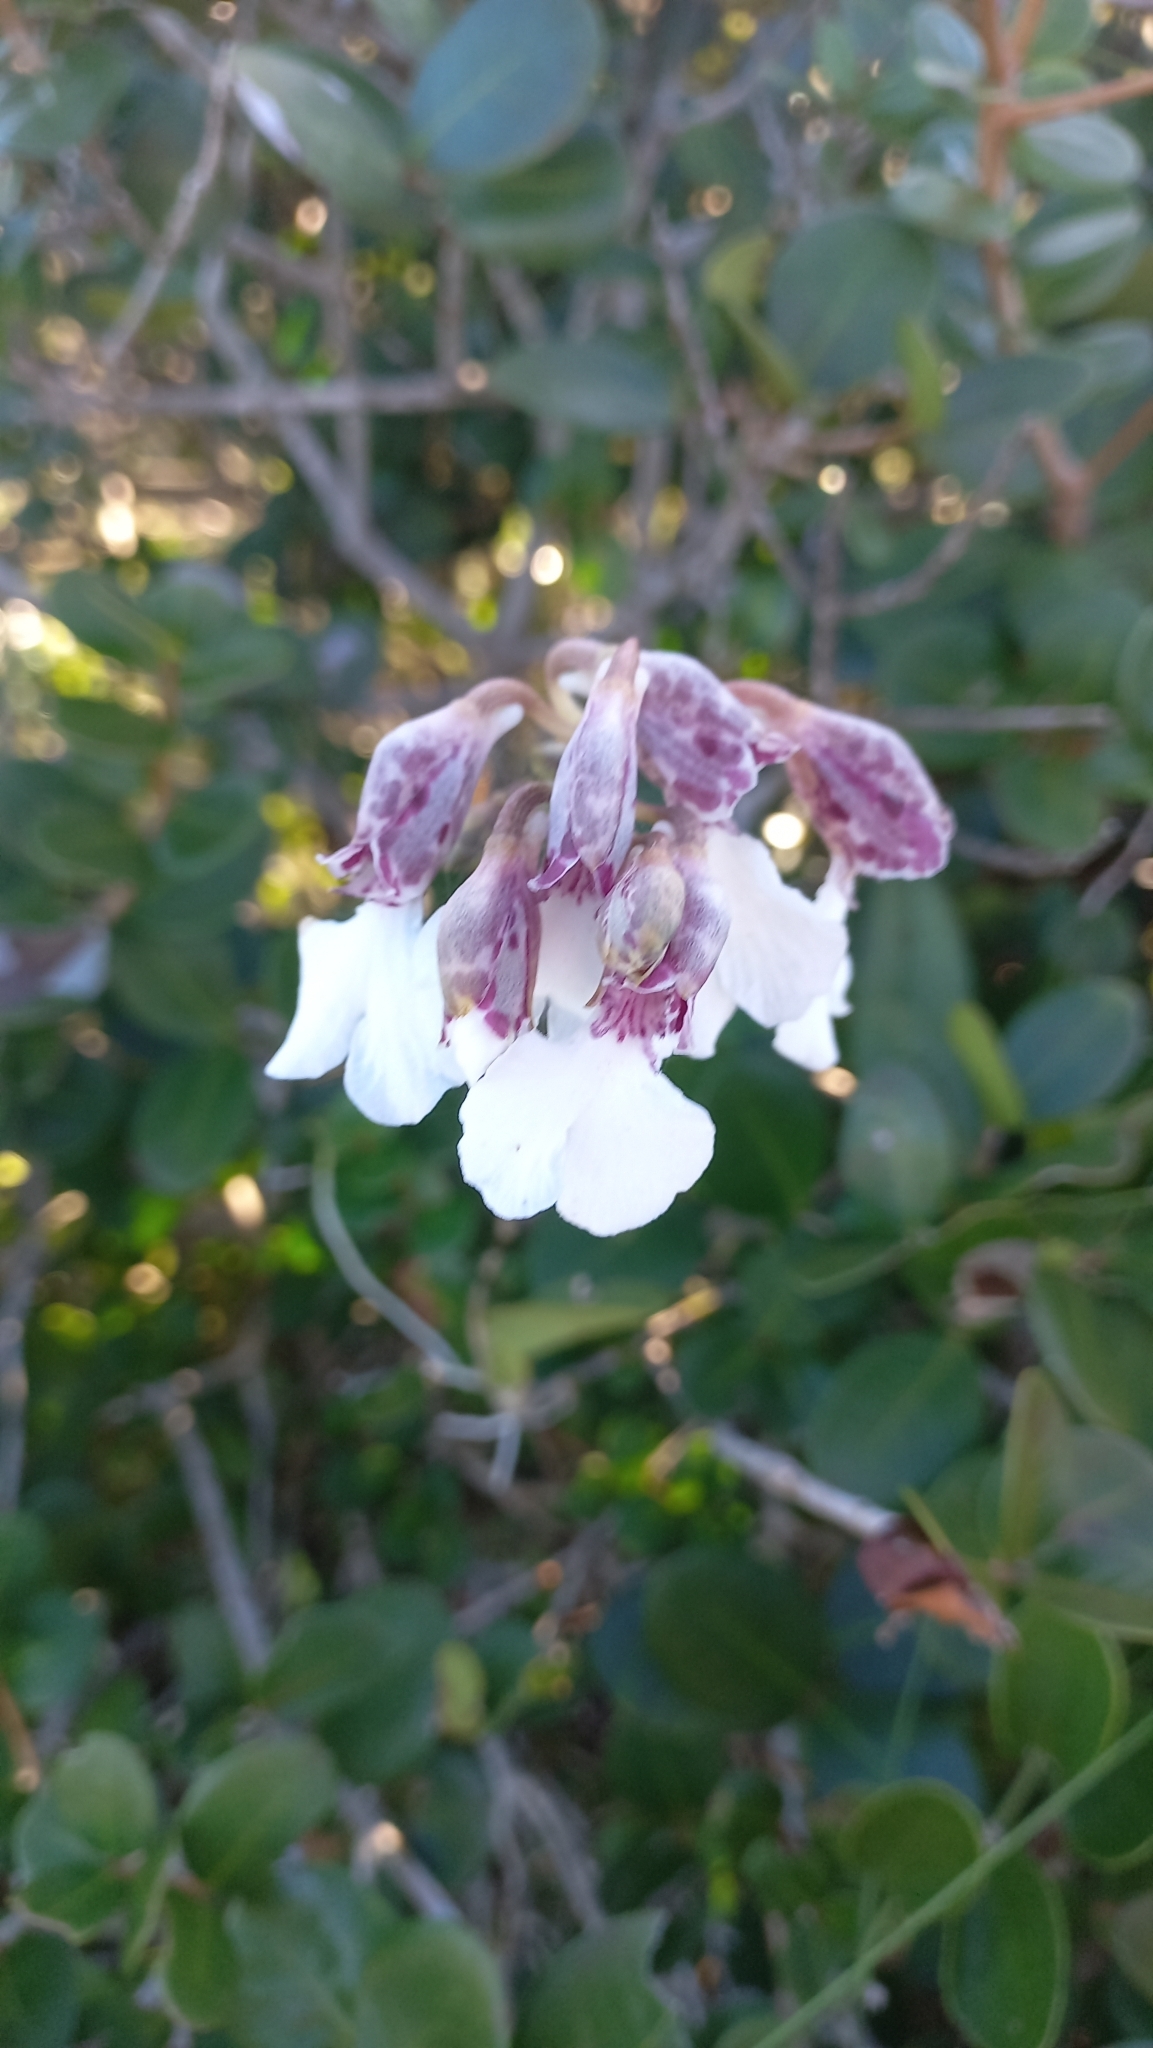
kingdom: Plantae
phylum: Tracheophyta
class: Liliopsida
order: Asparagales
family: Orchidaceae
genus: Rodriguezia
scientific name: Rodriguezia decora
